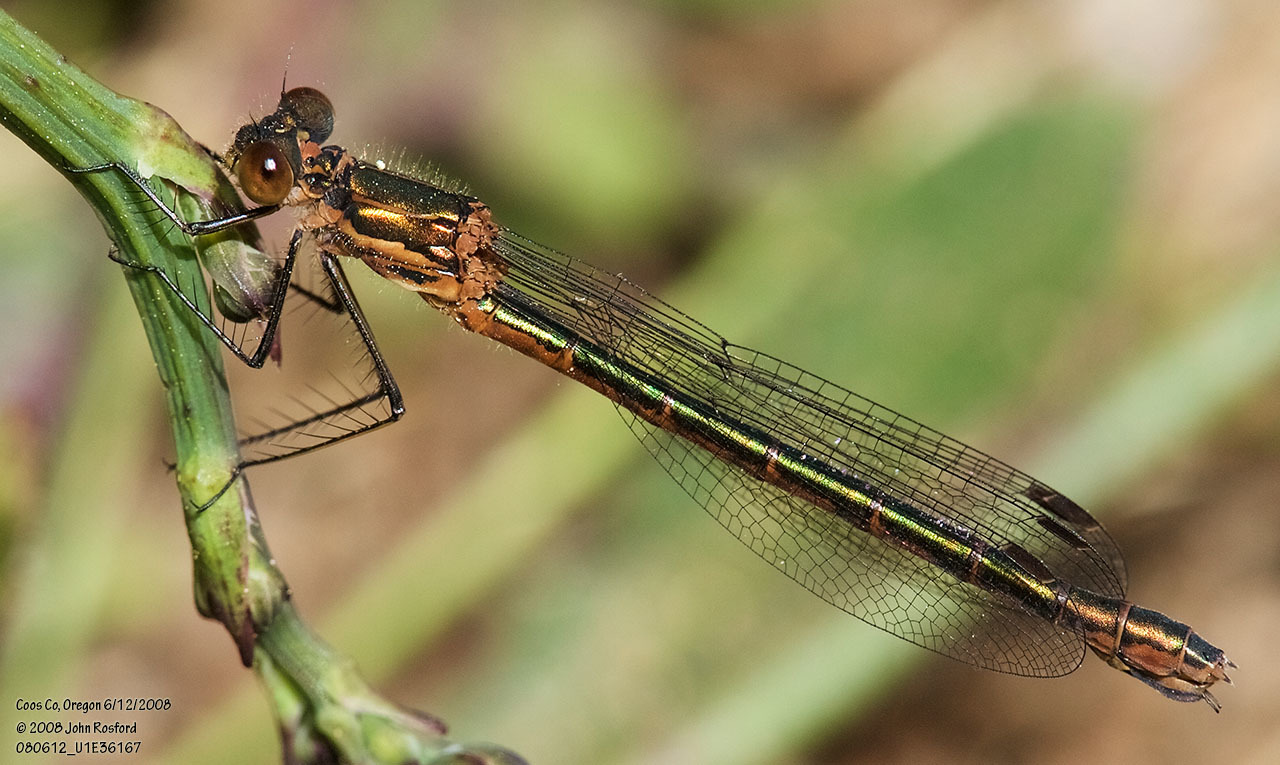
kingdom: Animalia
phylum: Arthropoda
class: Insecta
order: Odonata
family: Lestidae
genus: Lestes
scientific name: Lestes dryas
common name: Scarce emerald damselfly
